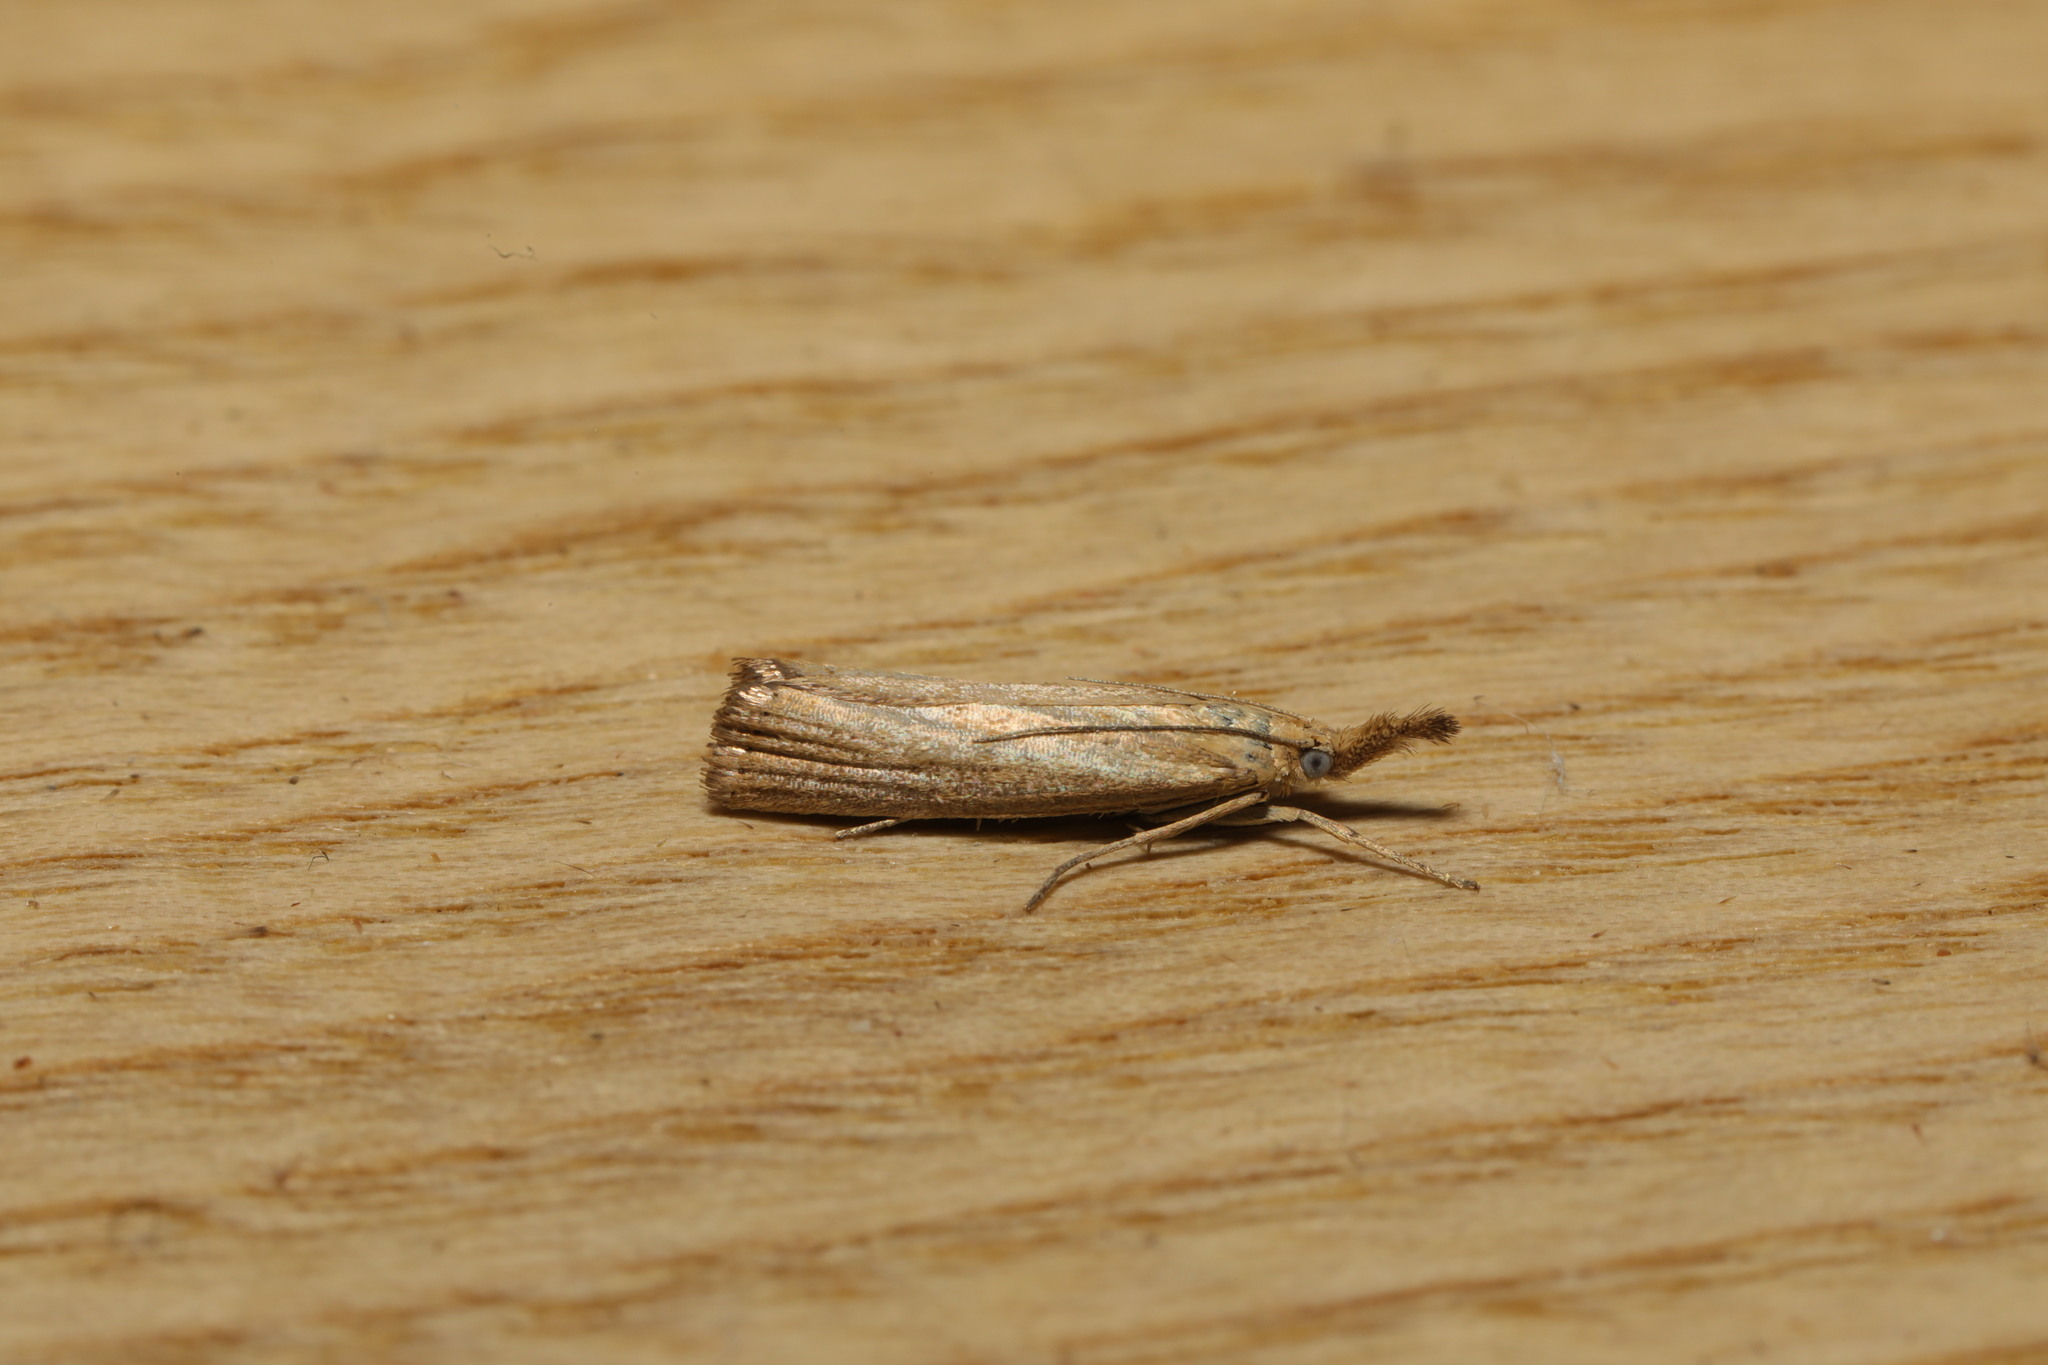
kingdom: Animalia
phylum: Arthropoda
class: Insecta
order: Lepidoptera
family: Crambidae
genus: Agriphila
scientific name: Agriphila straminella
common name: Straw grass-veneer
